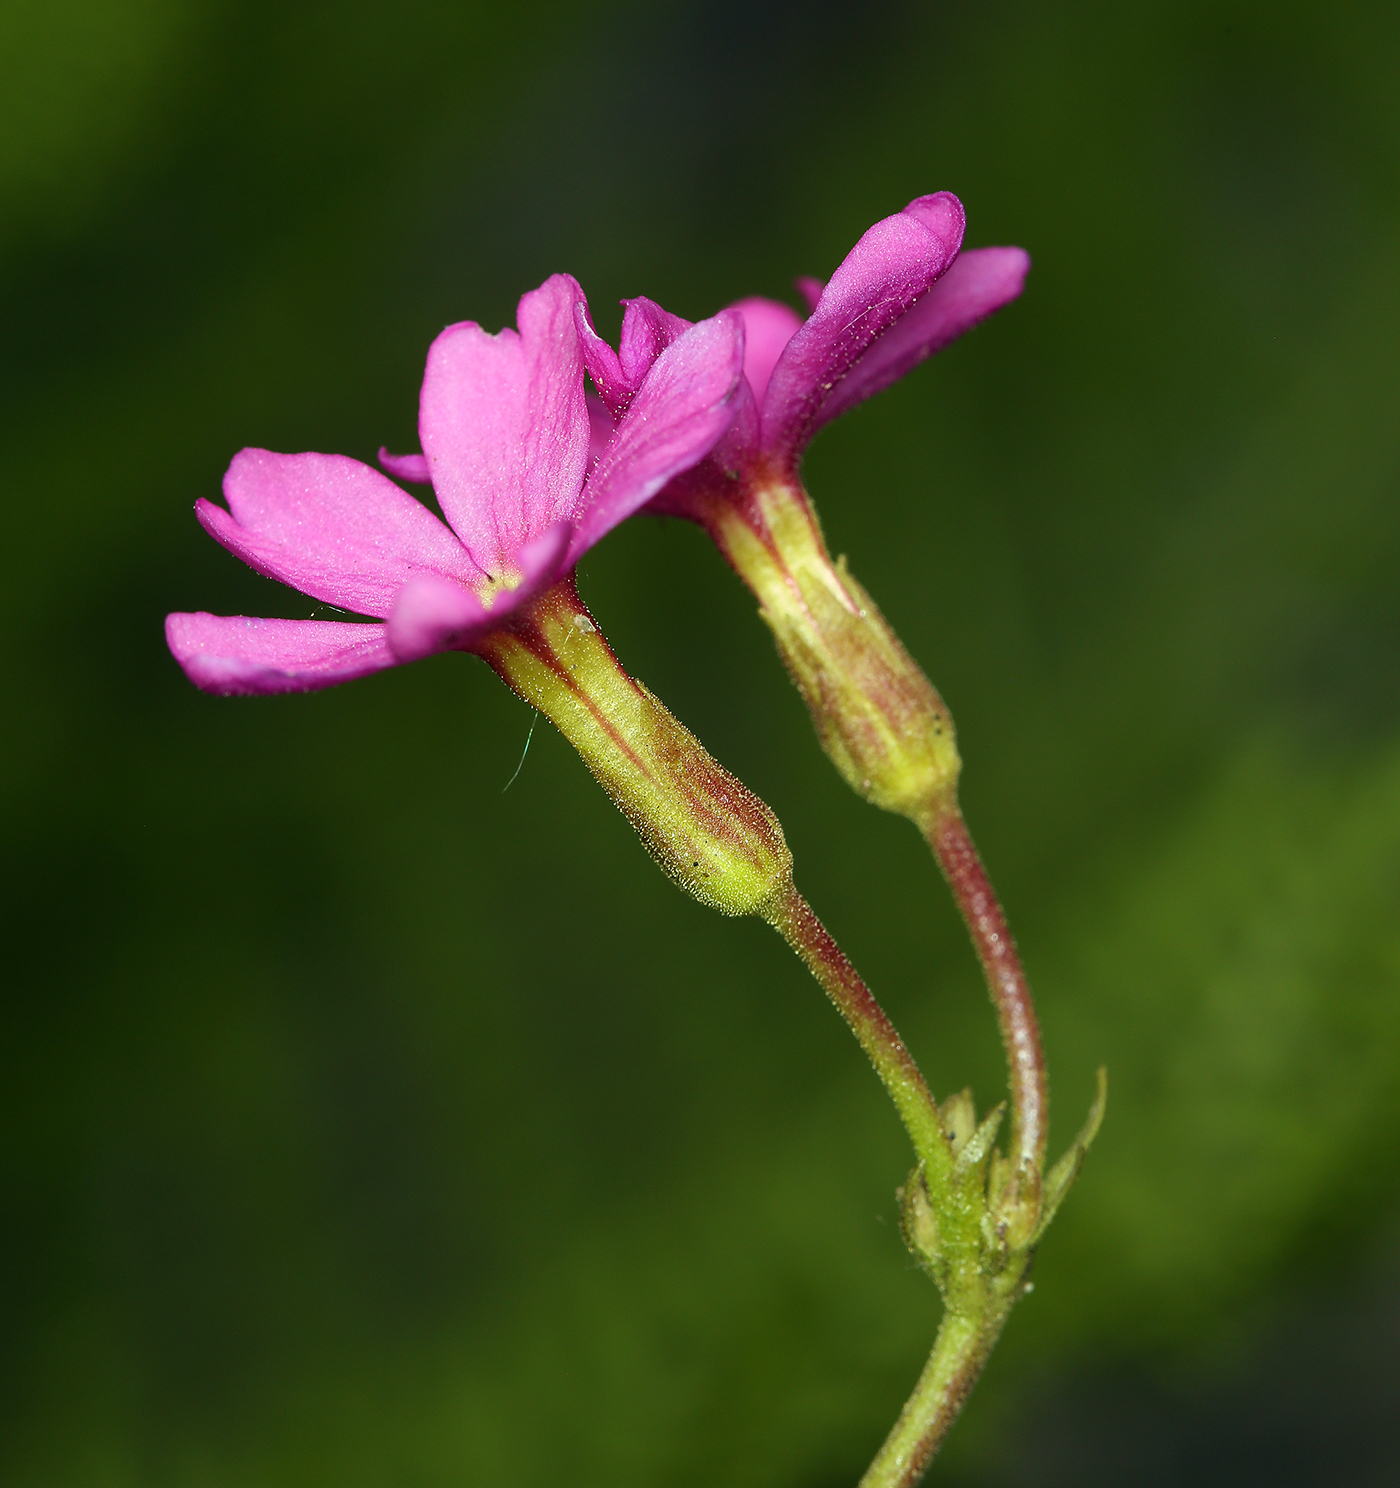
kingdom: Plantae
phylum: Tracheophyta
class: Magnoliopsida
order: Ericales
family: Primulaceae
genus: Primula
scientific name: Primula suffrutescens
